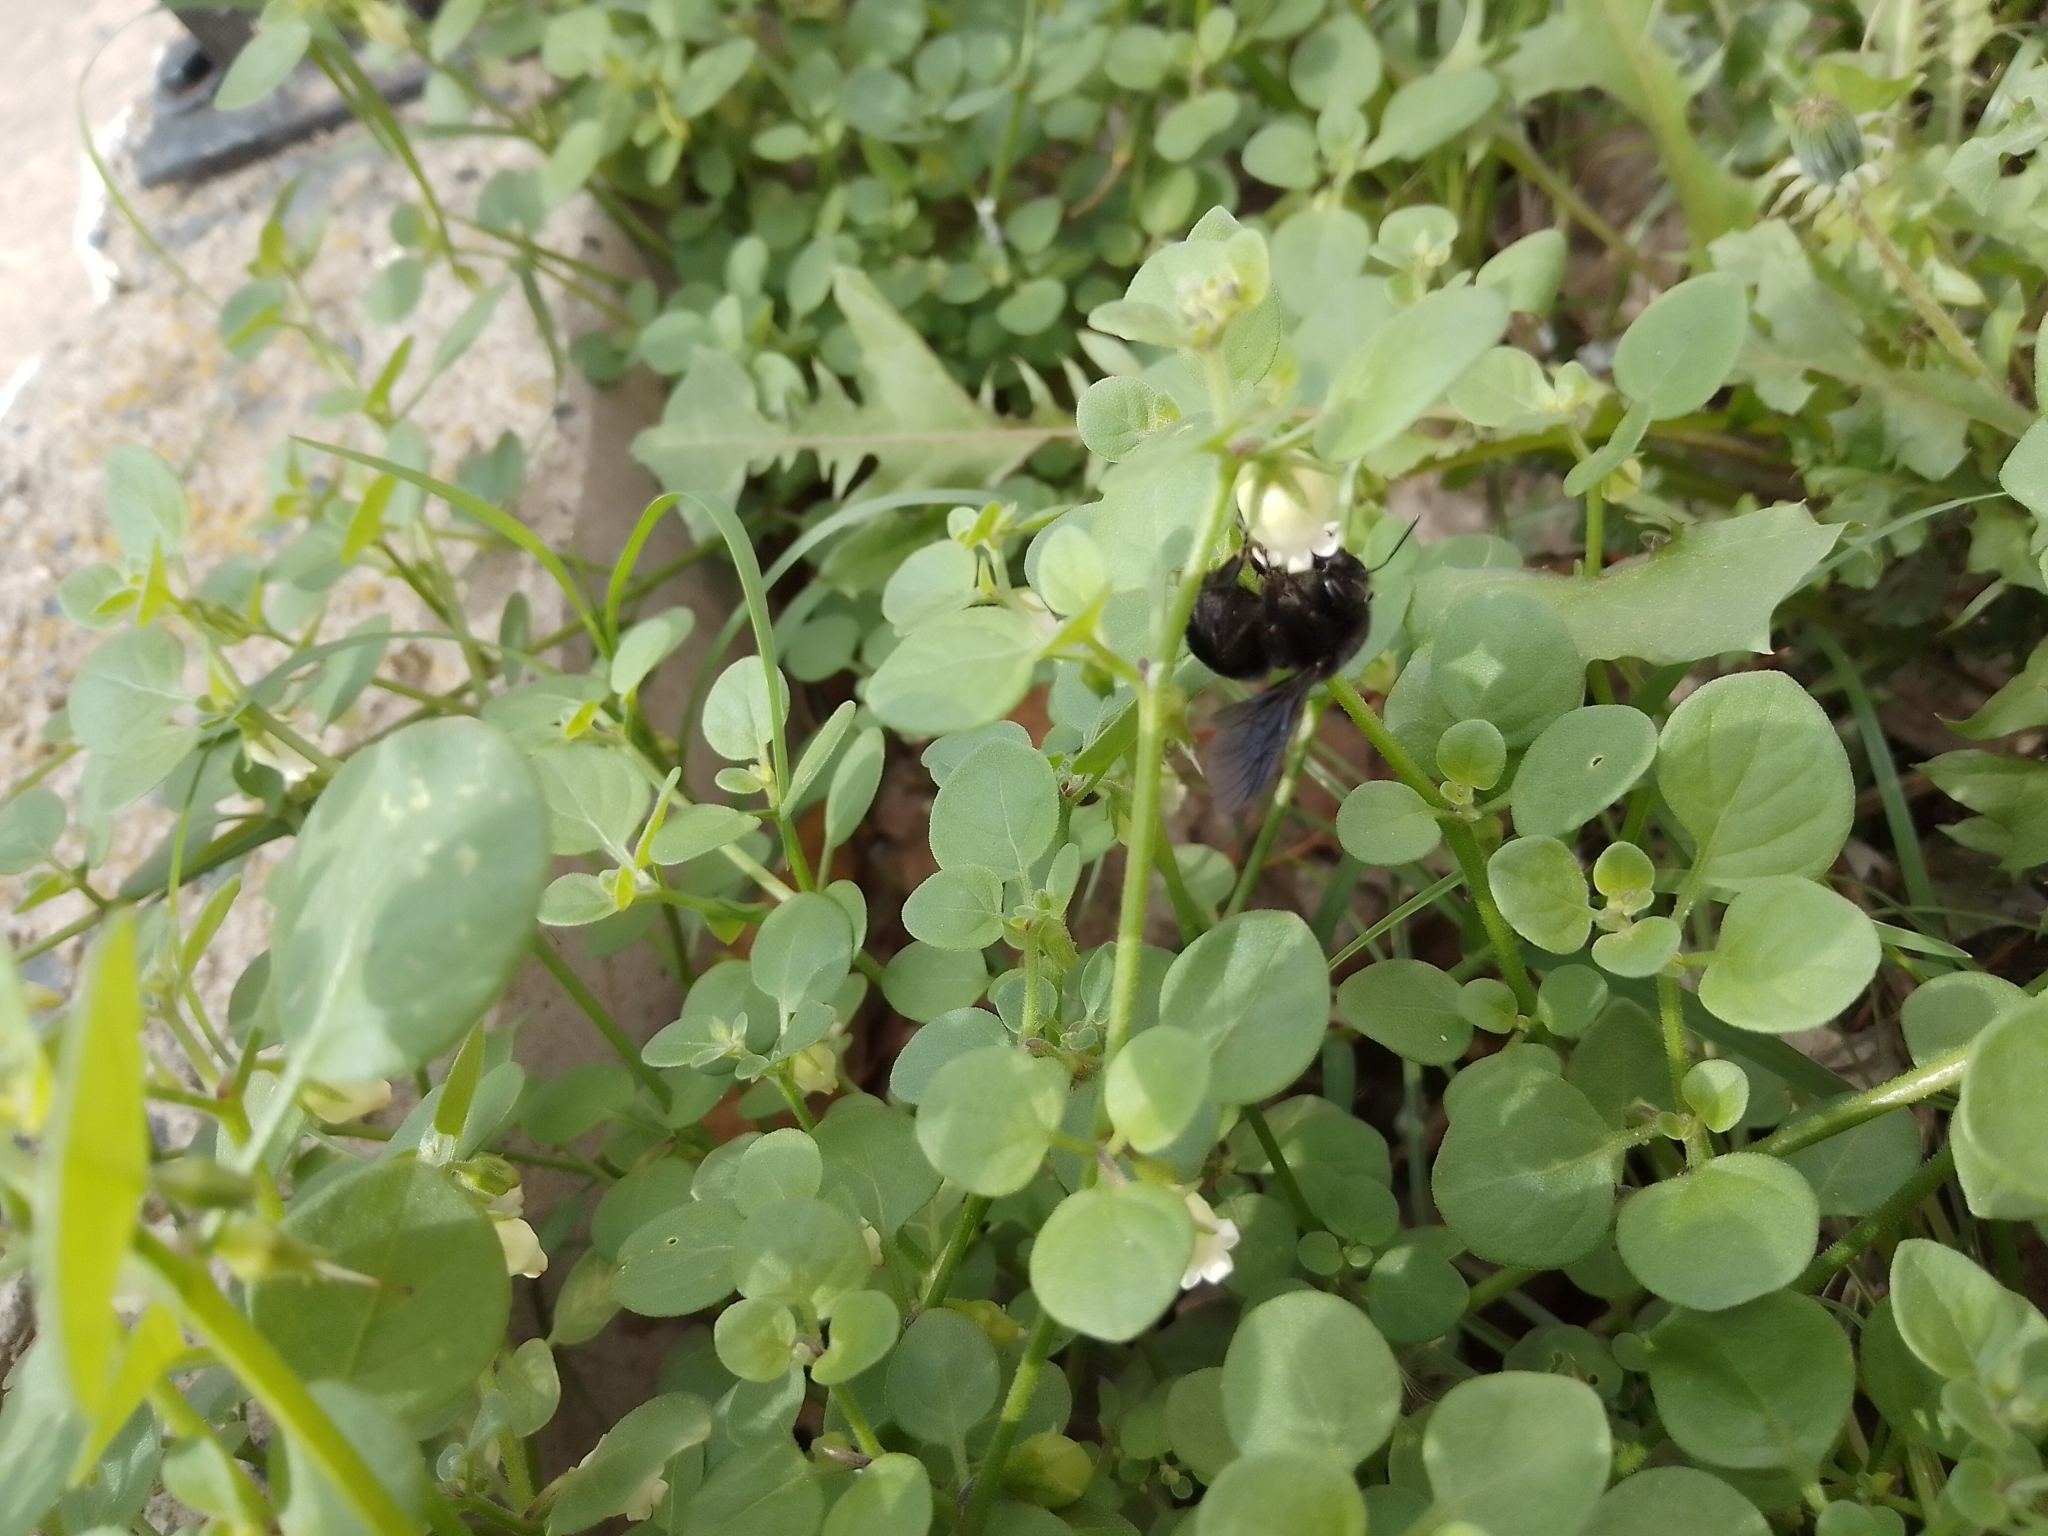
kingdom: Plantae
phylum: Tracheophyta
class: Magnoliopsida
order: Solanales
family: Solanaceae
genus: Salpichroa
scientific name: Salpichroa origanifolia
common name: Lily-of-the-valley-vine
